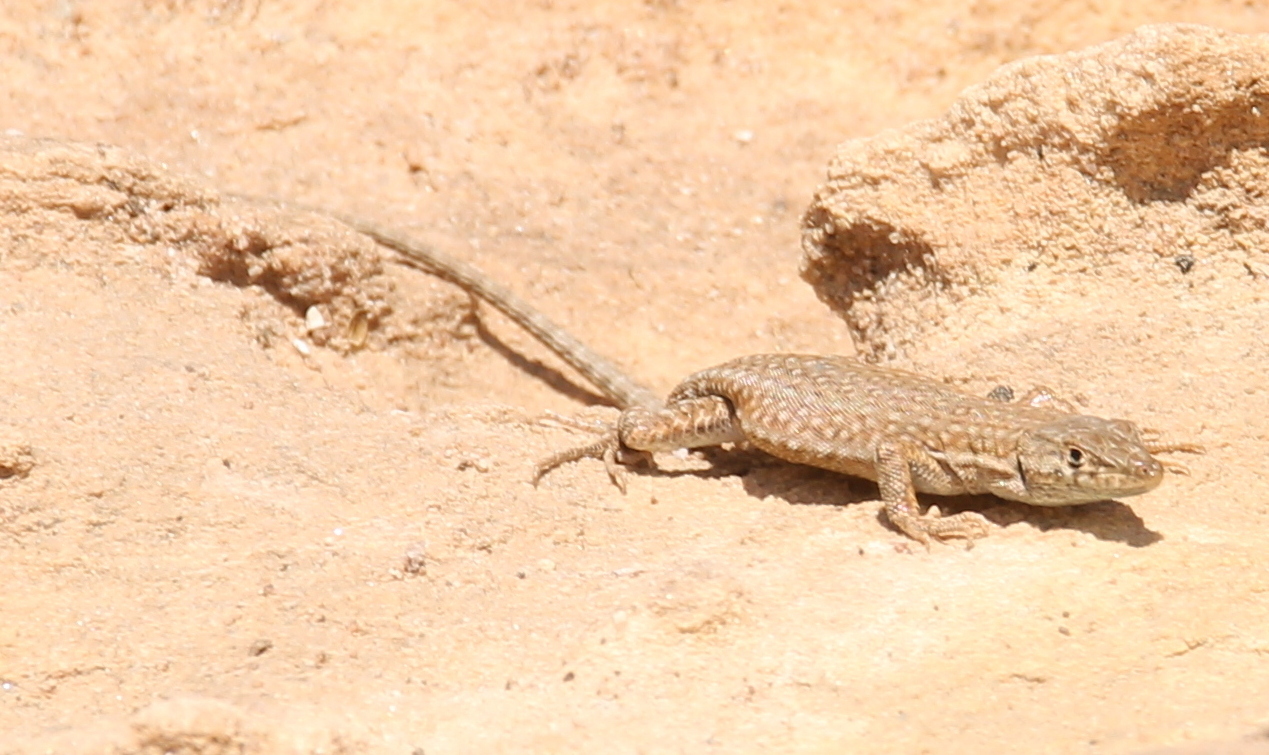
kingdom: Animalia
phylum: Chordata
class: Squamata
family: Lacertidae
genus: Mesalina
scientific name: Mesalina bahaeldini
